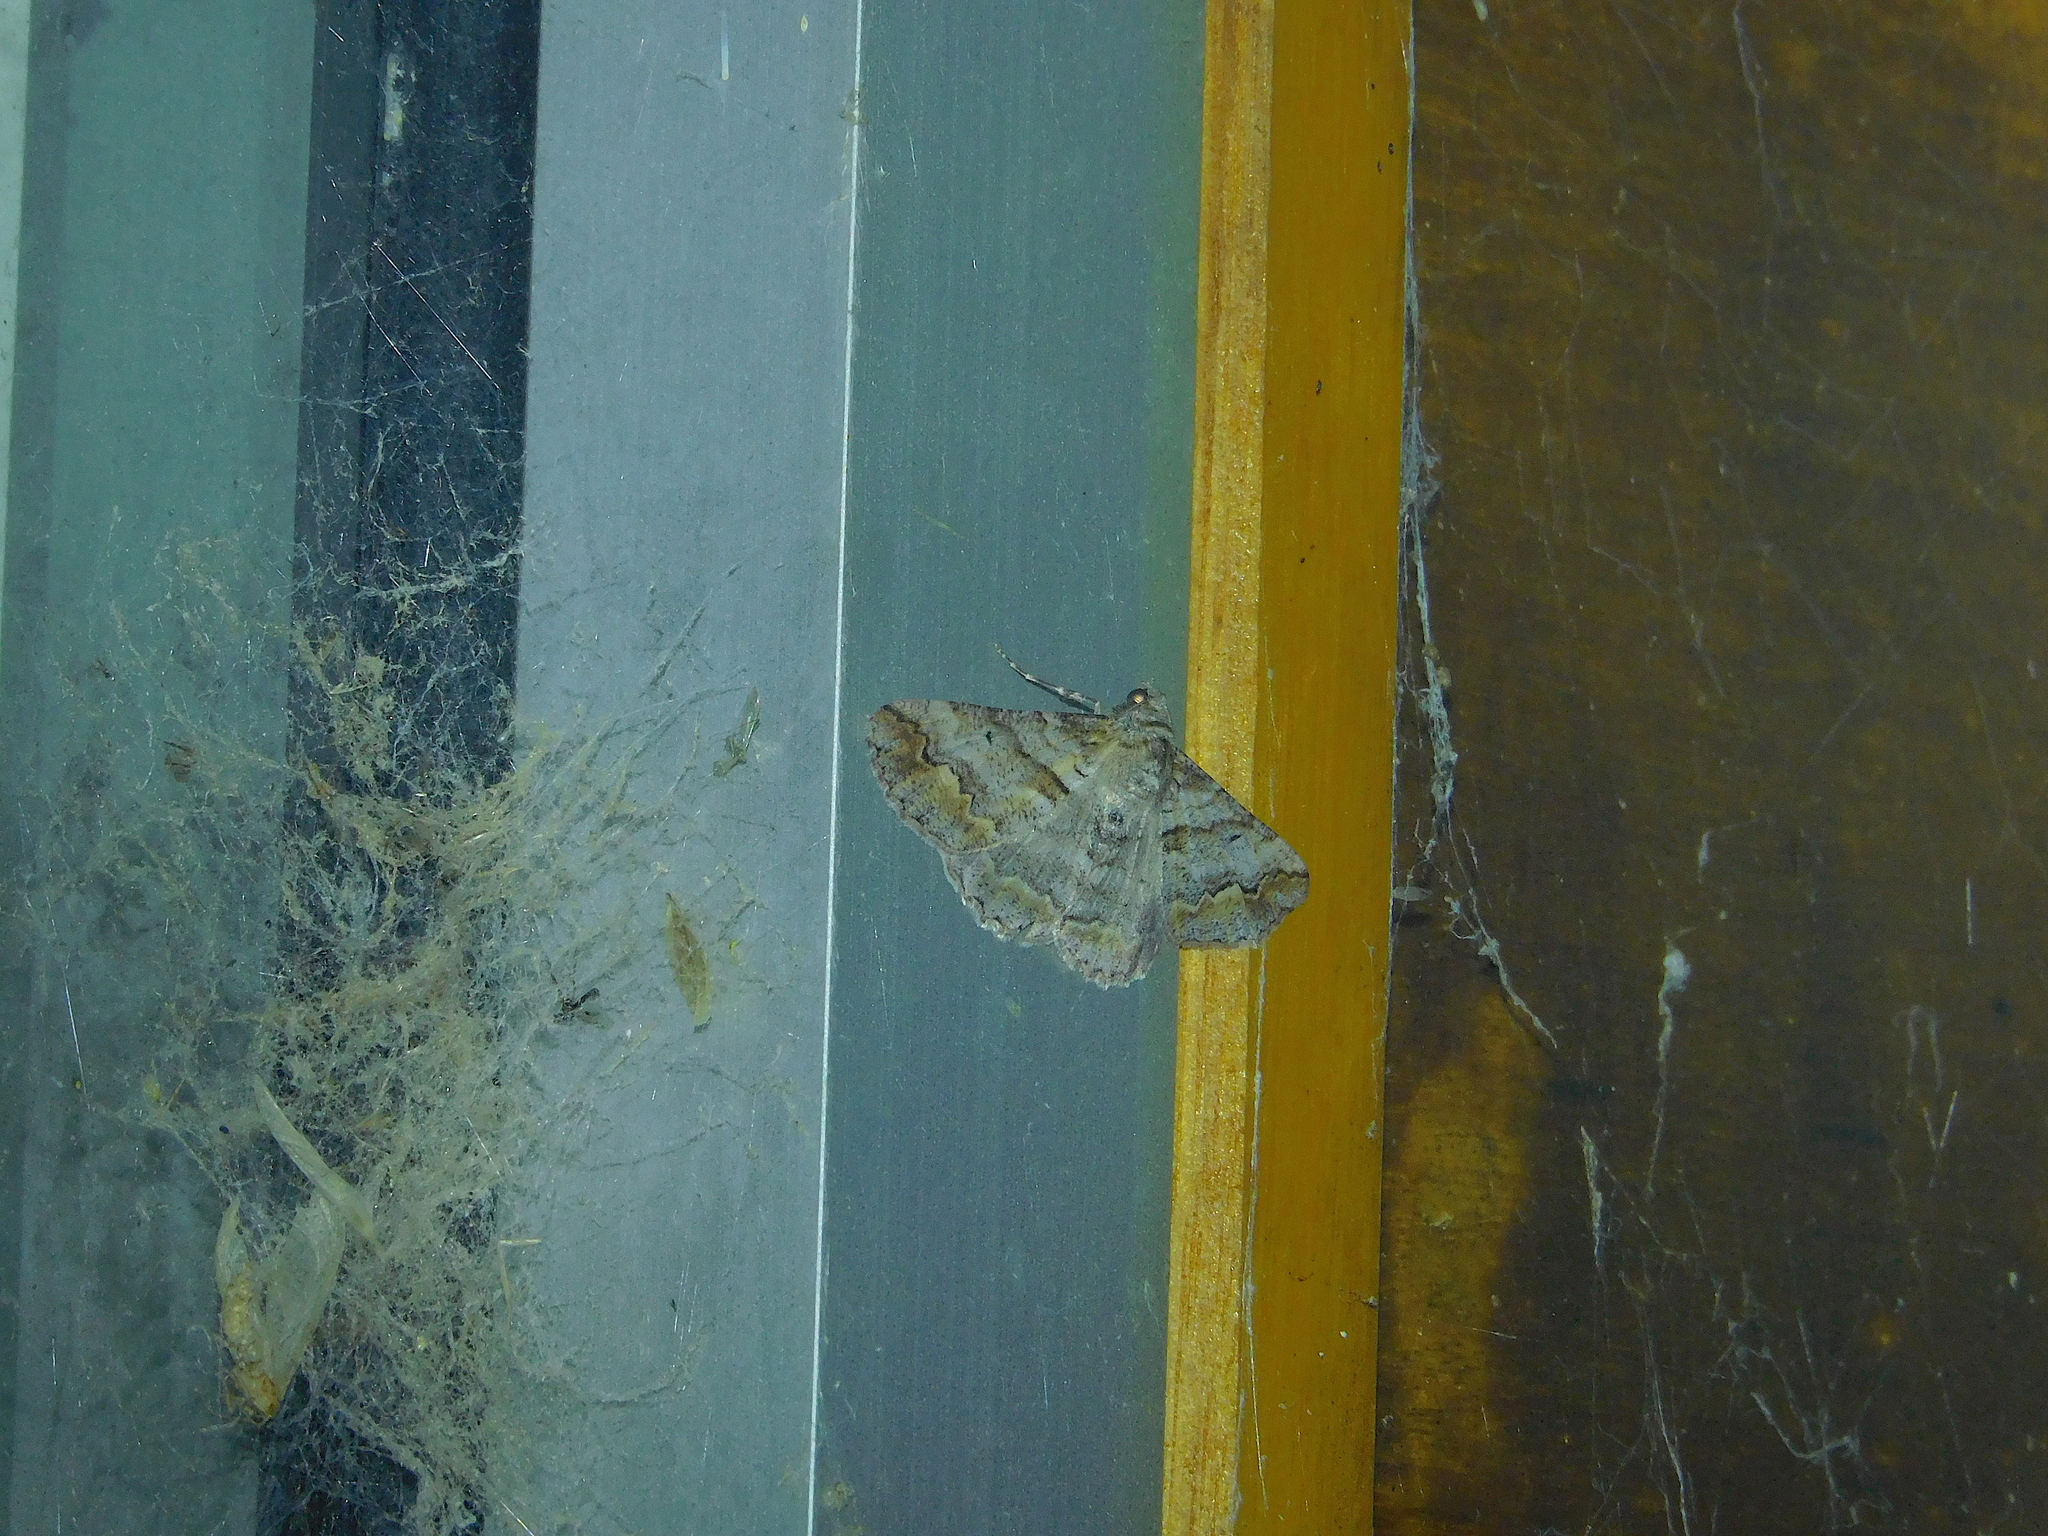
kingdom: Animalia
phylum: Arthropoda
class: Insecta
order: Lepidoptera
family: Geometridae
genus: Gastrinodes
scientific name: Gastrinodes bitaeniaria
